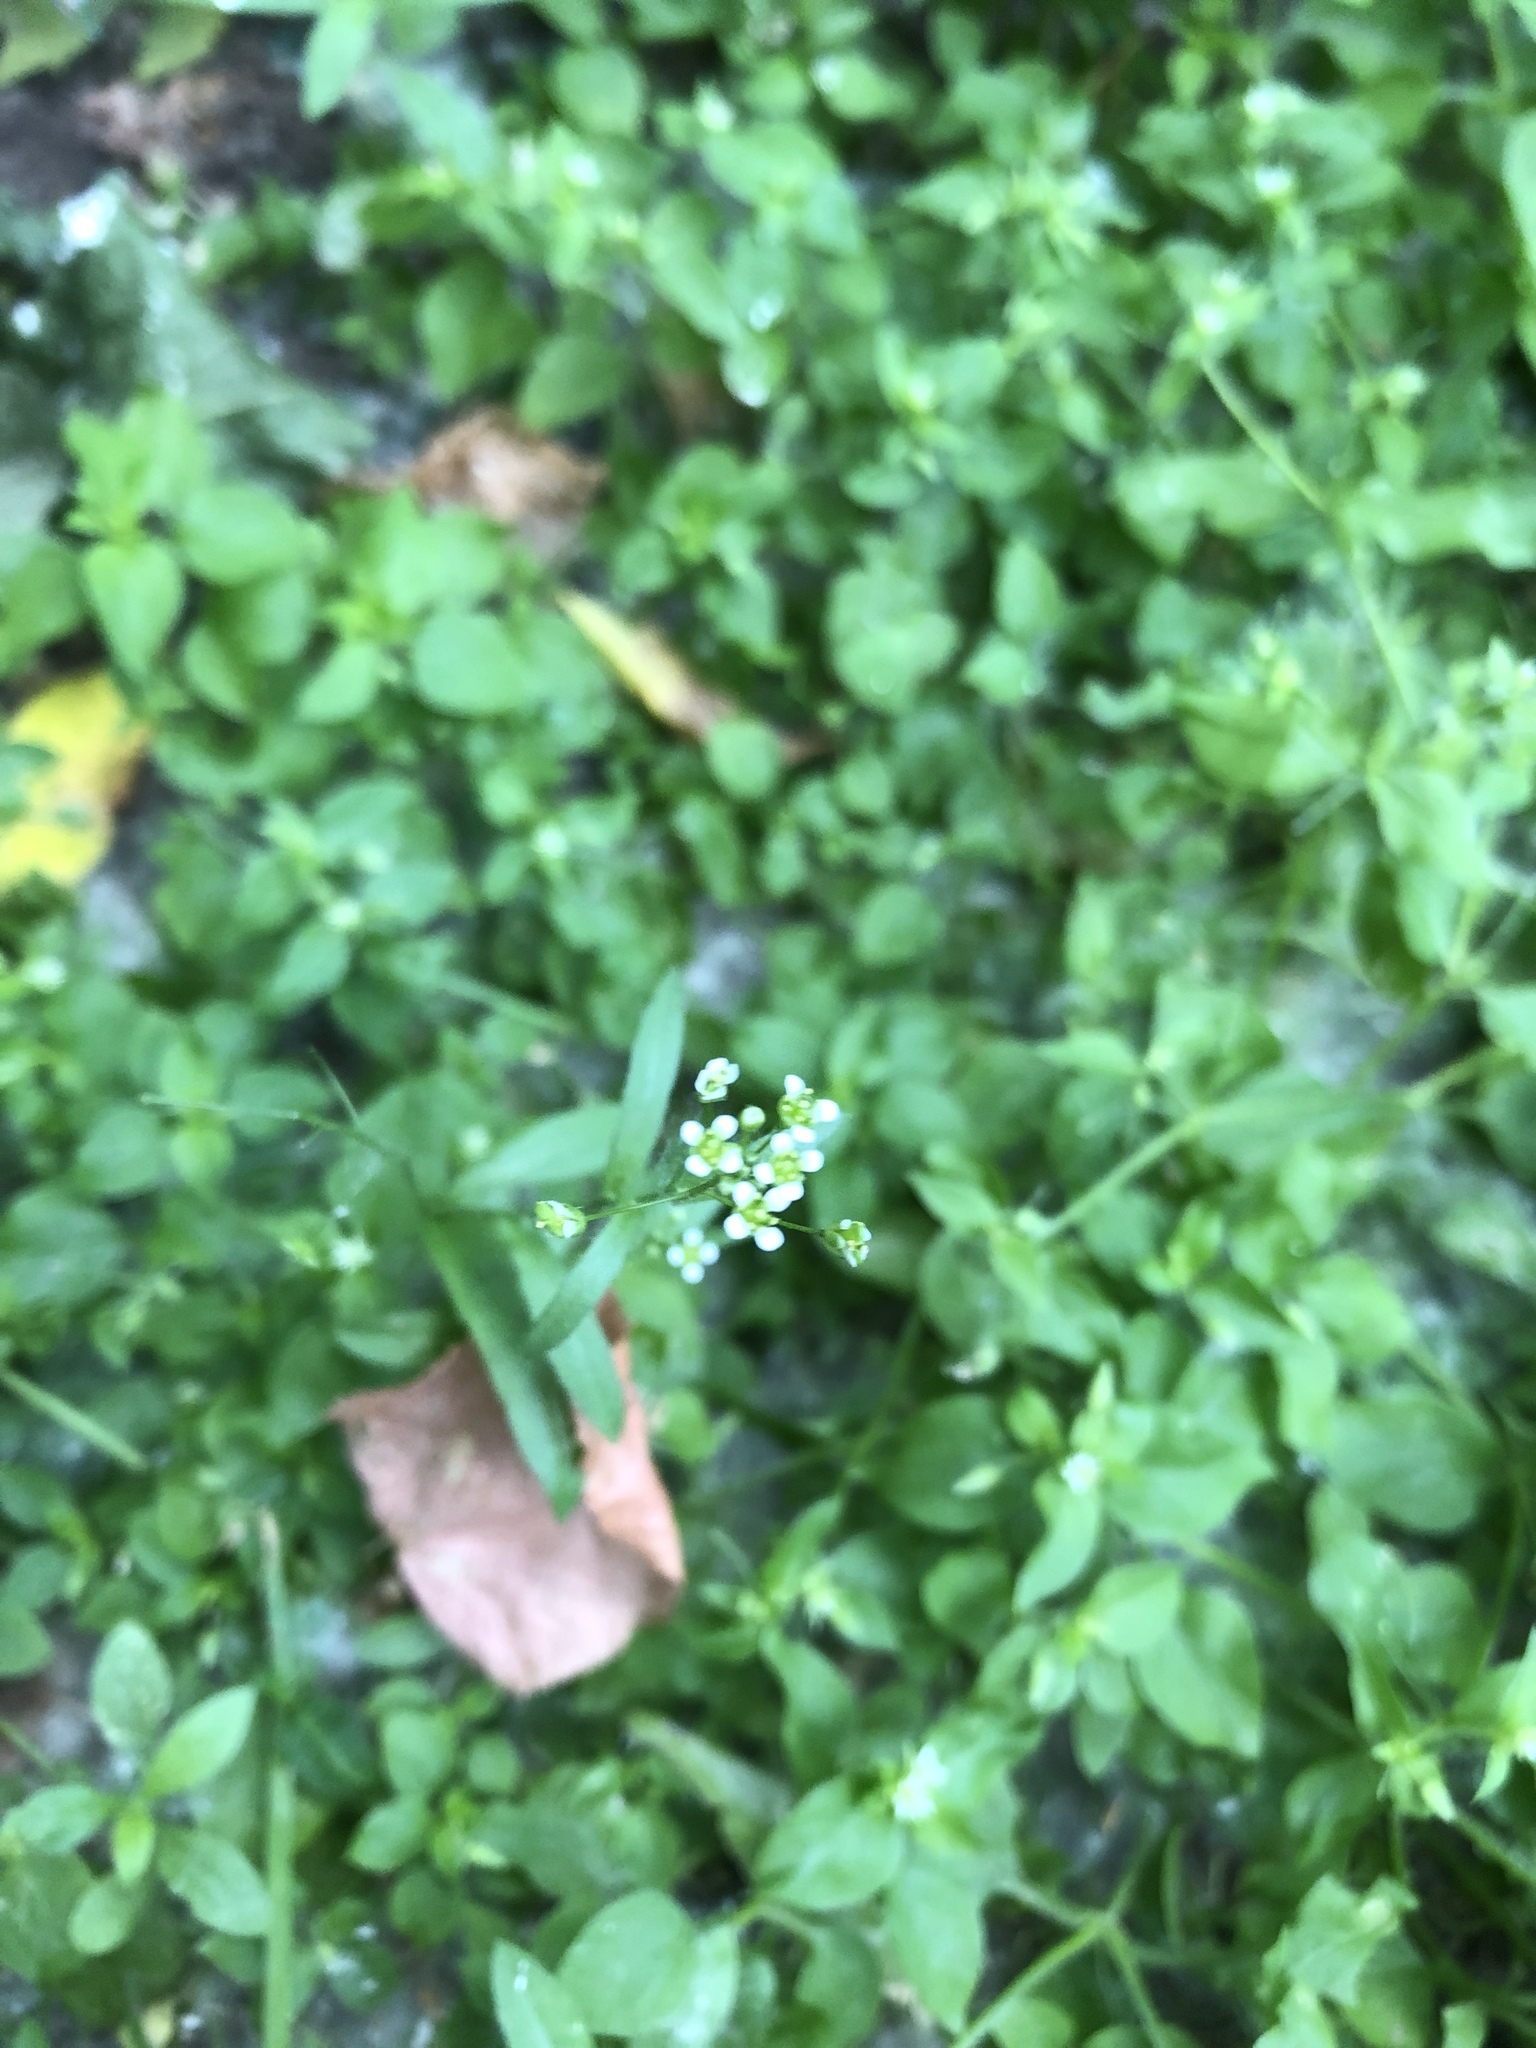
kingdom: Plantae
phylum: Tracheophyta
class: Magnoliopsida
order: Brassicales
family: Brassicaceae
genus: Capsella
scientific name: Capsella bursa-pastoris
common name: Shepherd's purse
